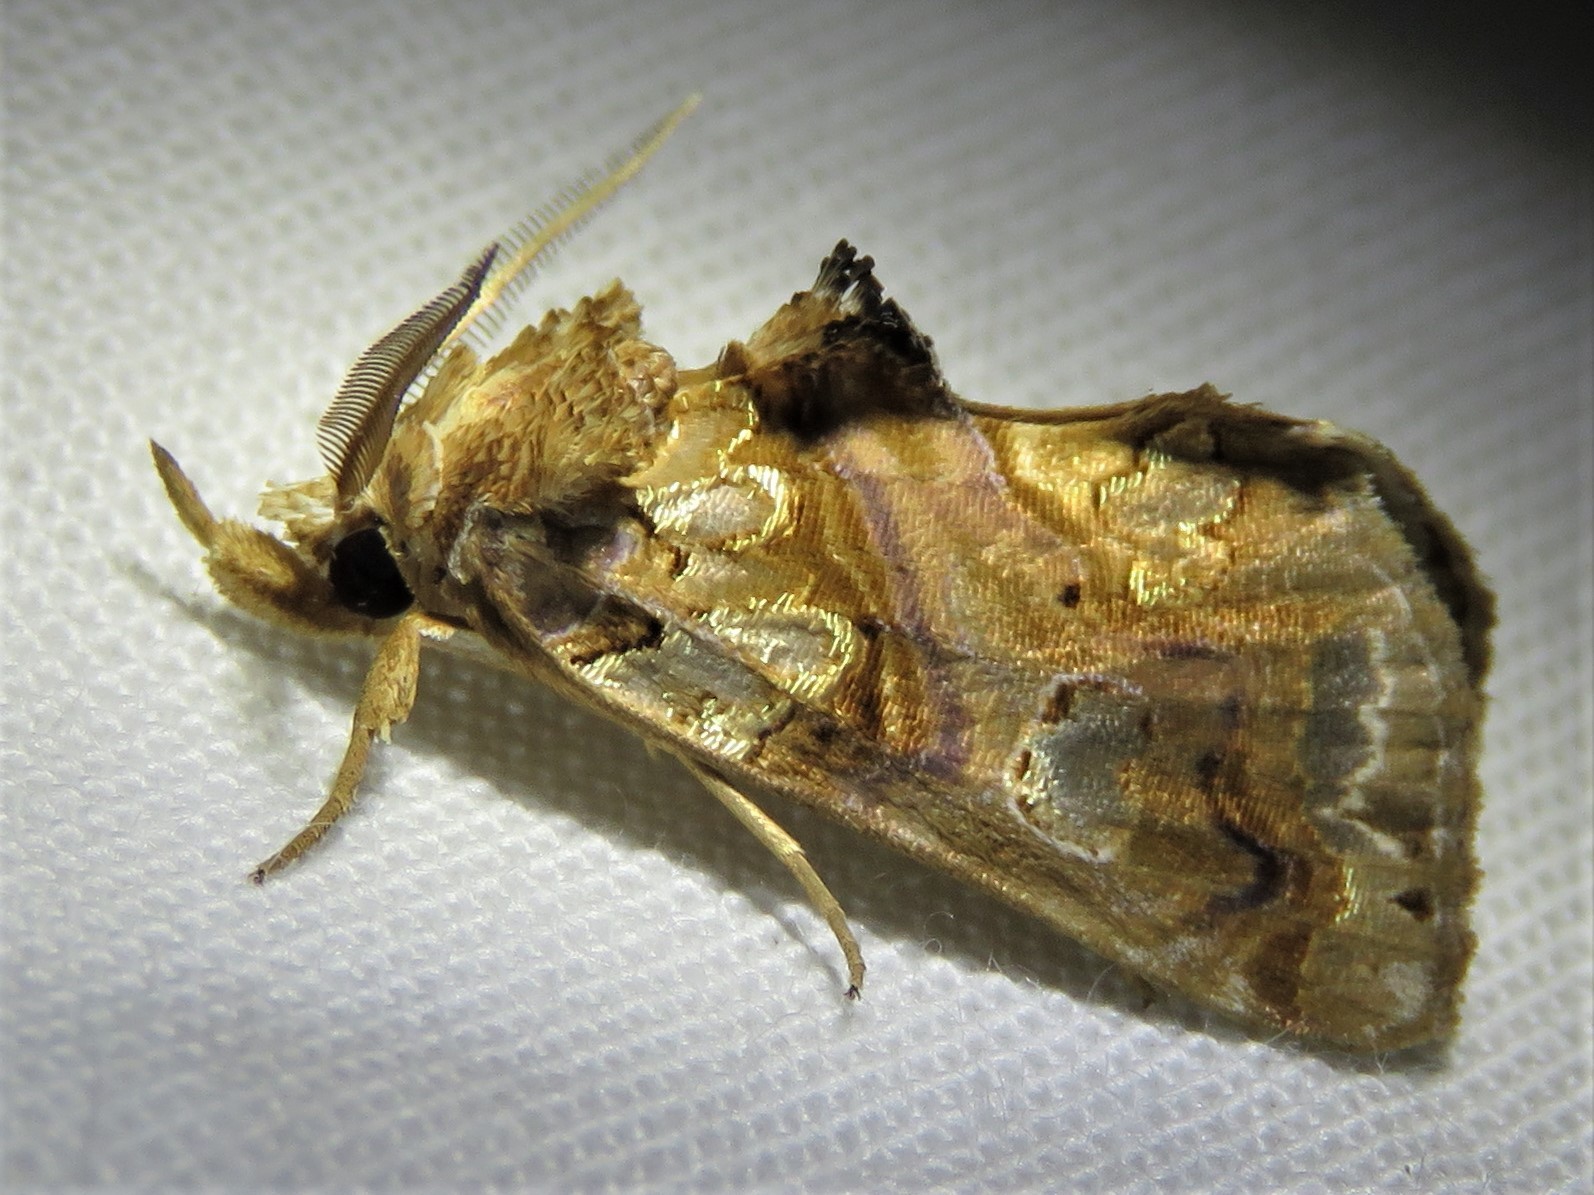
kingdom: Animalia
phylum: Arthropoda
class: Insecta
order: Lepidoptera
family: Erebidae
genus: Plusiodonta
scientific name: Plusiodonta compressipalpis
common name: Moonseed moth
